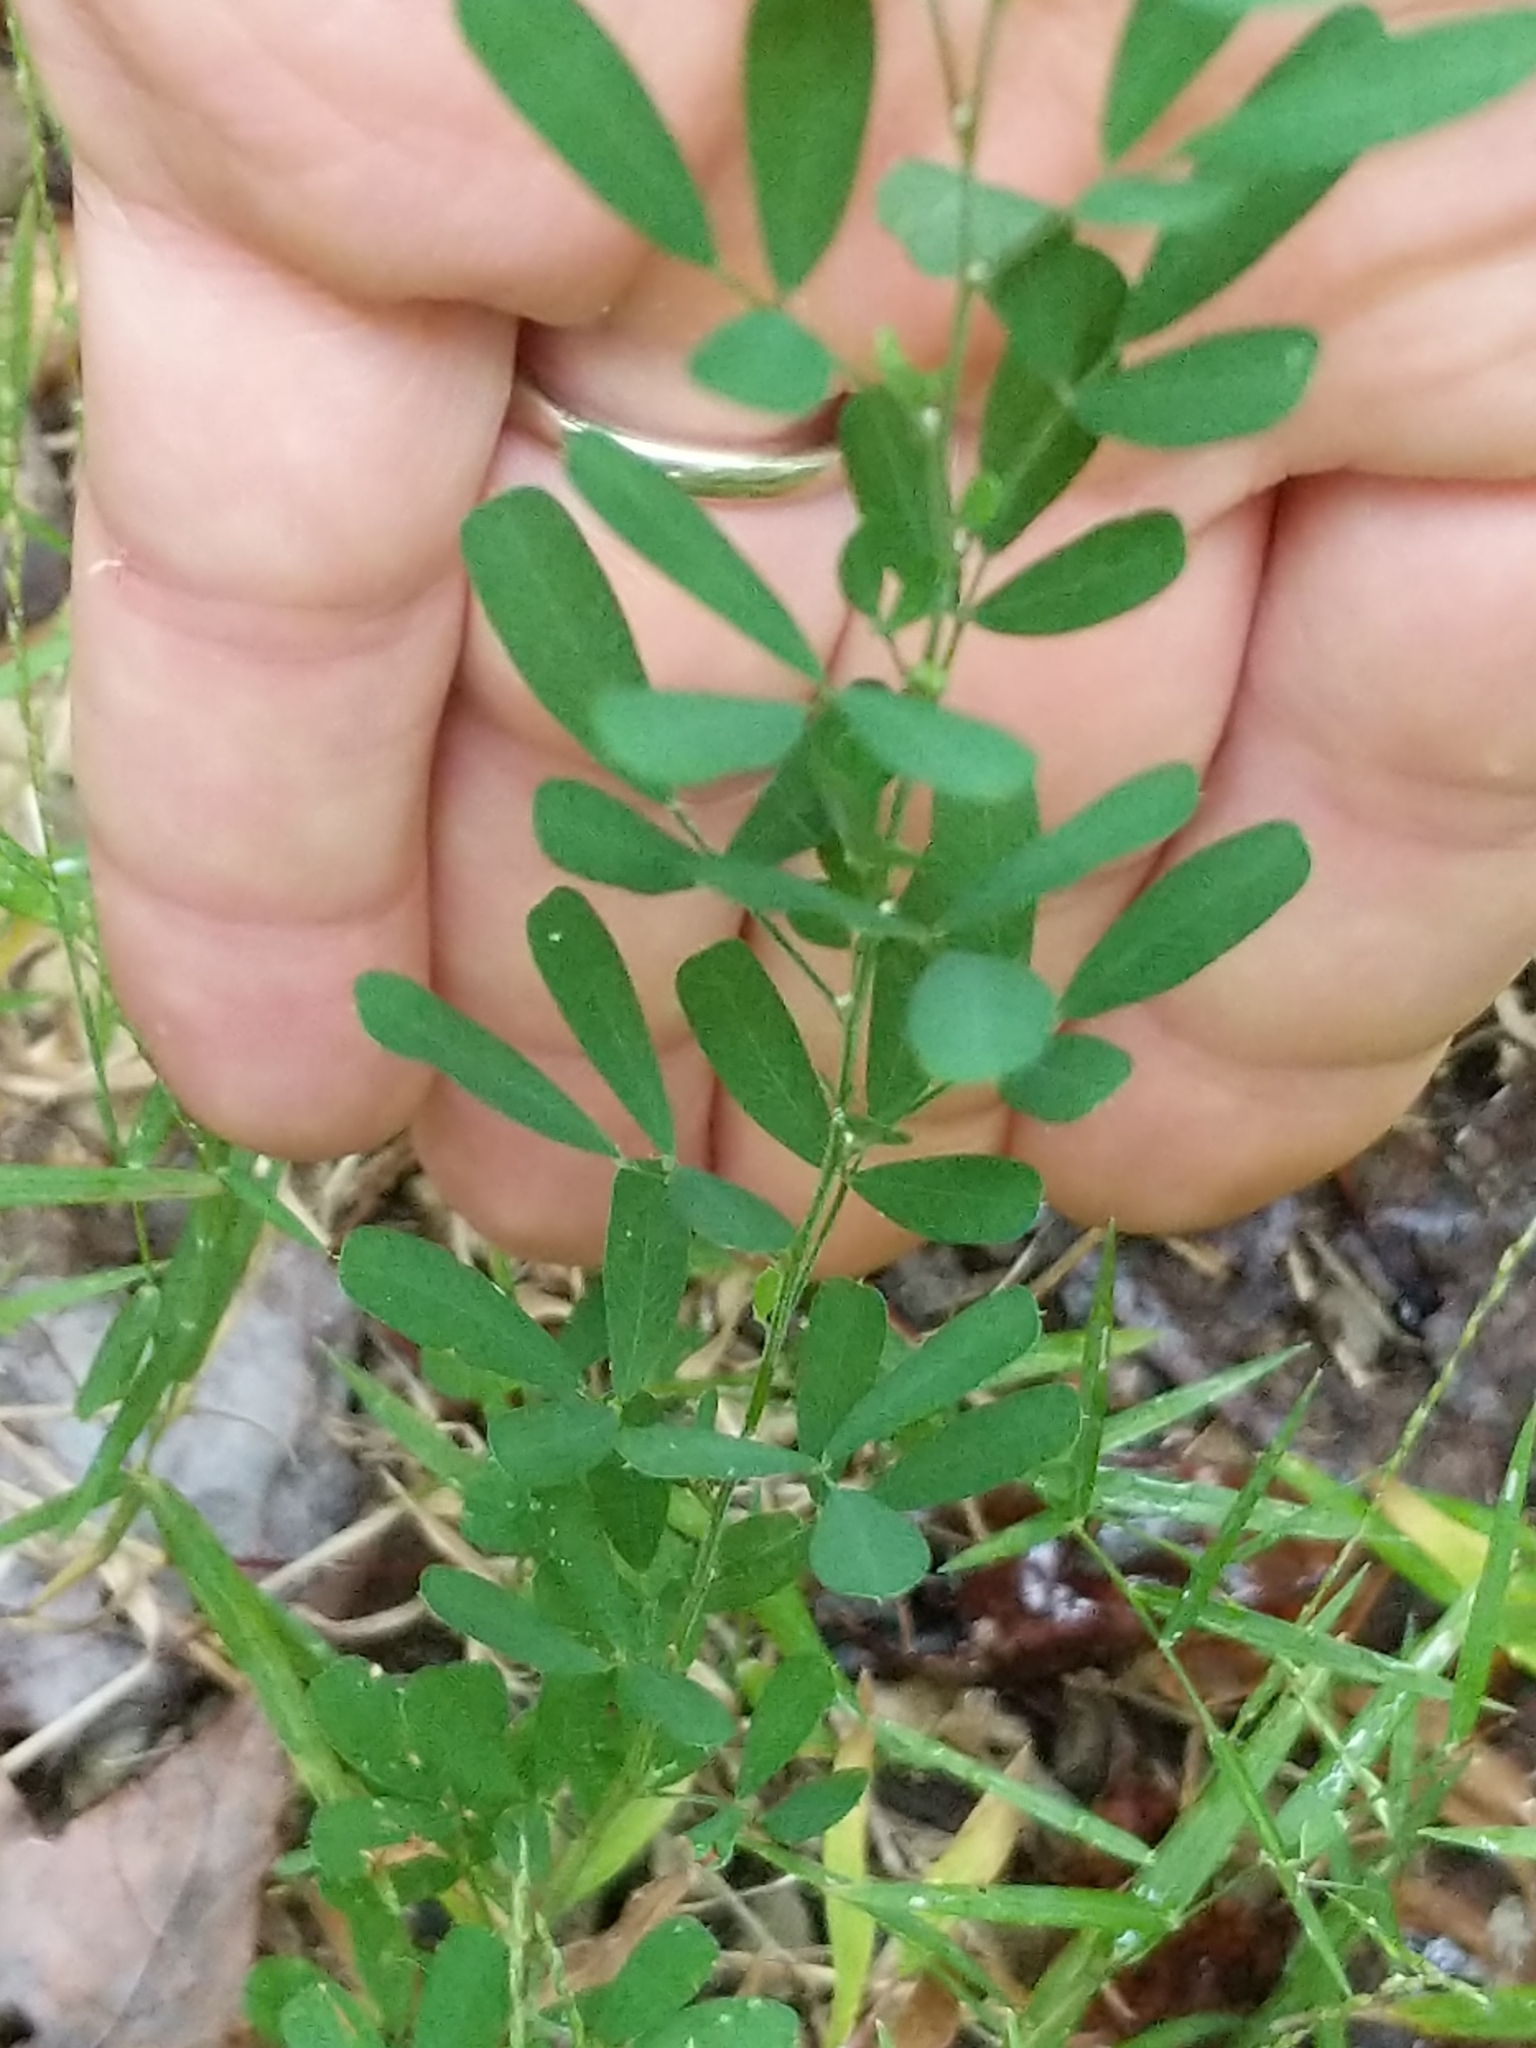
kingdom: Plantae
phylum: Tracheophyta
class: Magnoliopsida
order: Fabales
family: Fabaceae
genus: Lespedeza
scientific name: Lespedeza cuneata
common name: Chinese bush-clover
